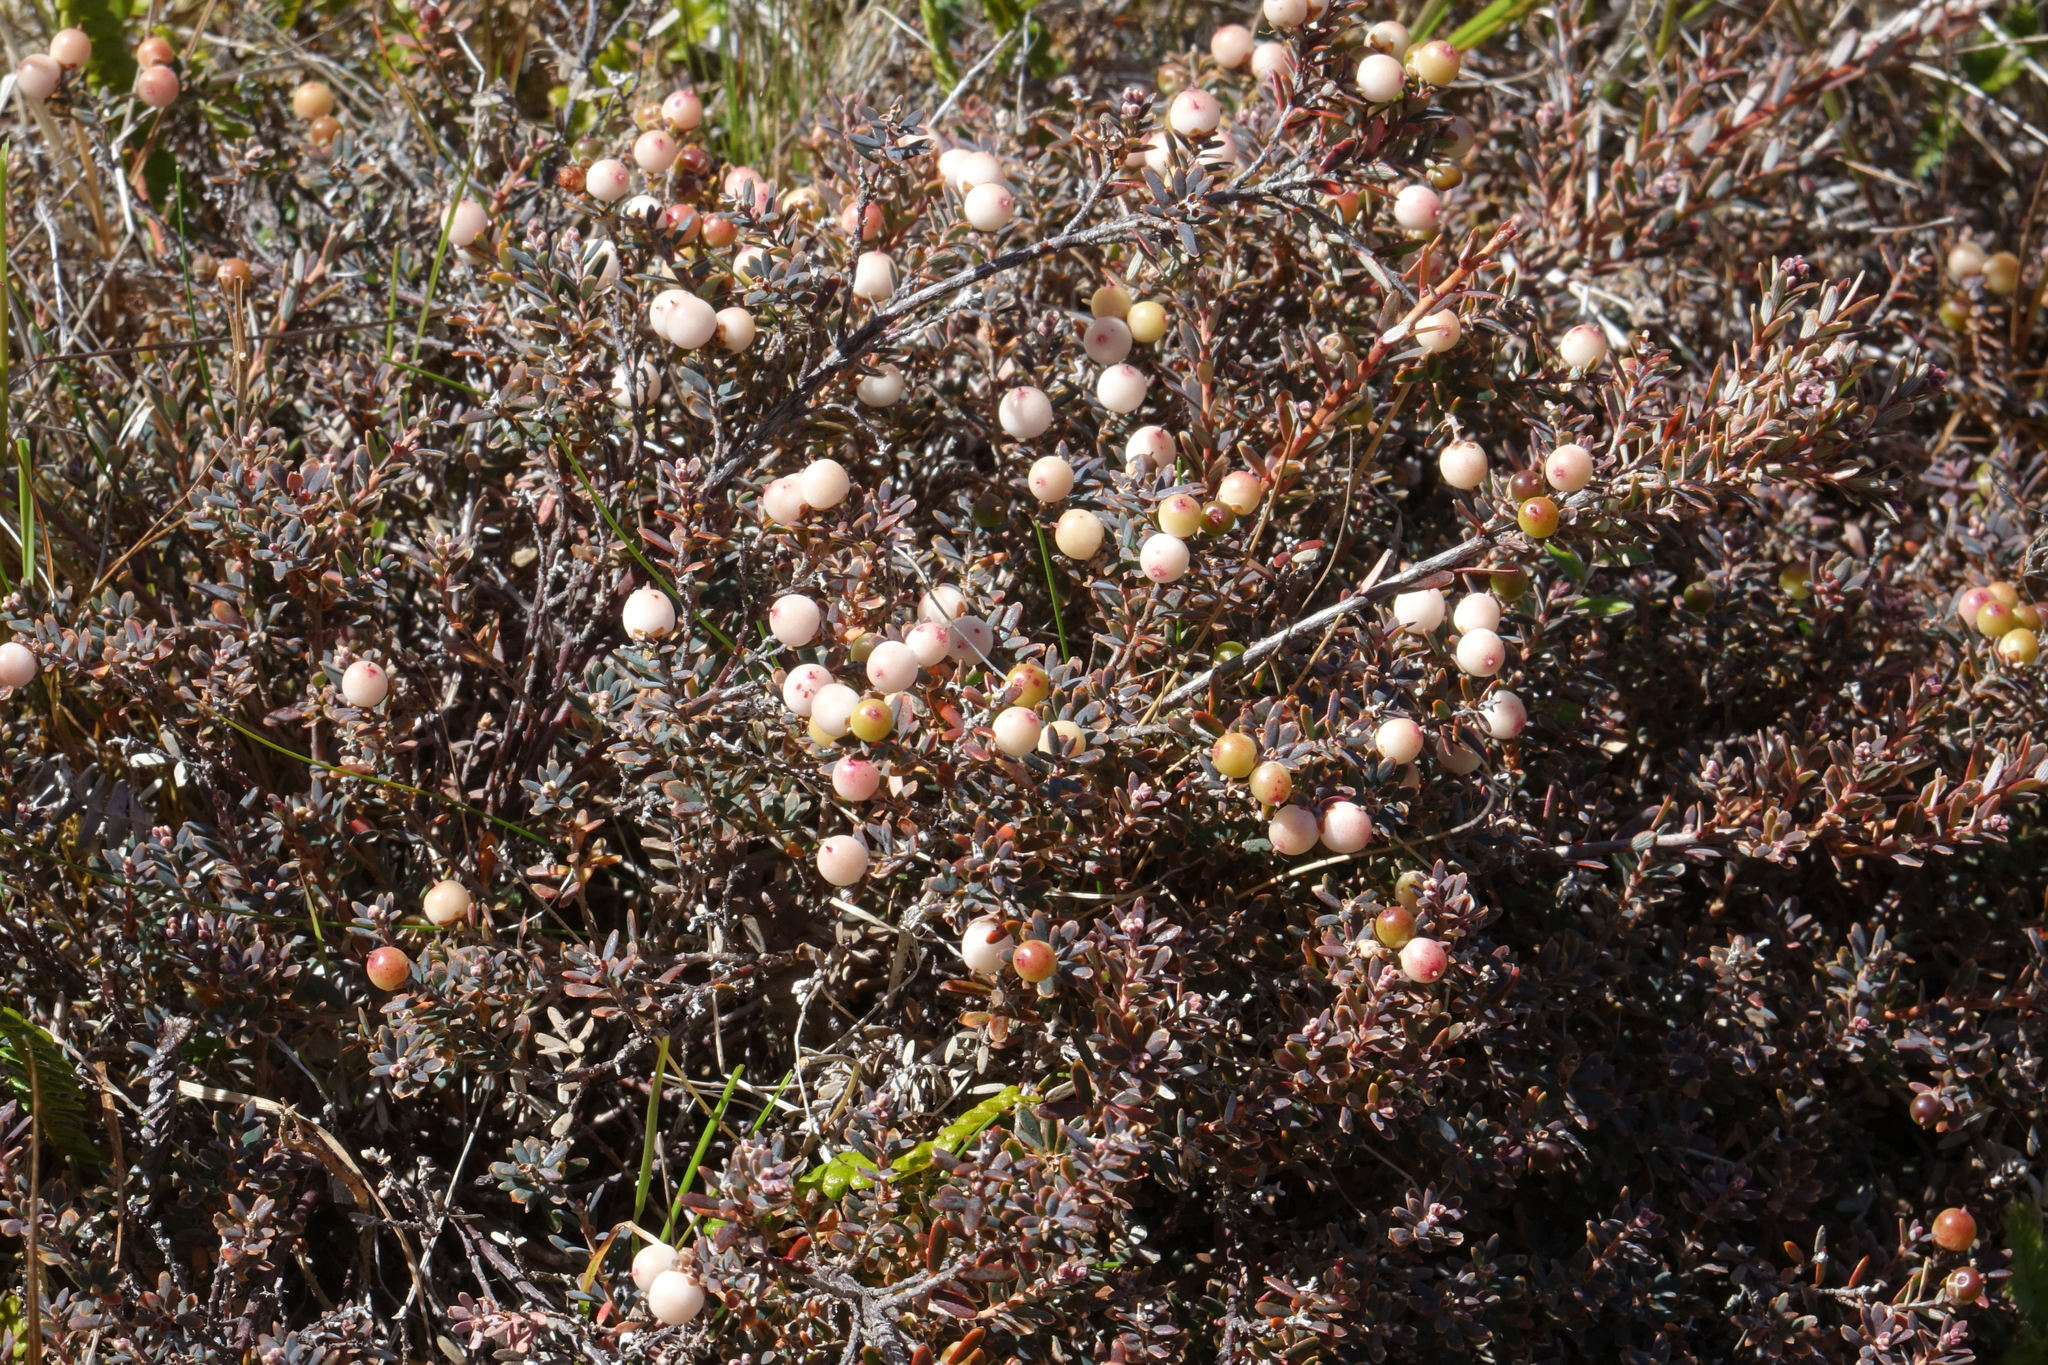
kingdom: Plantae
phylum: Tracheophyta
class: Magnoliopsida
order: Ericales
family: Ericaceae
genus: Acrothamnus
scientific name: Acrothamnus colensoi
